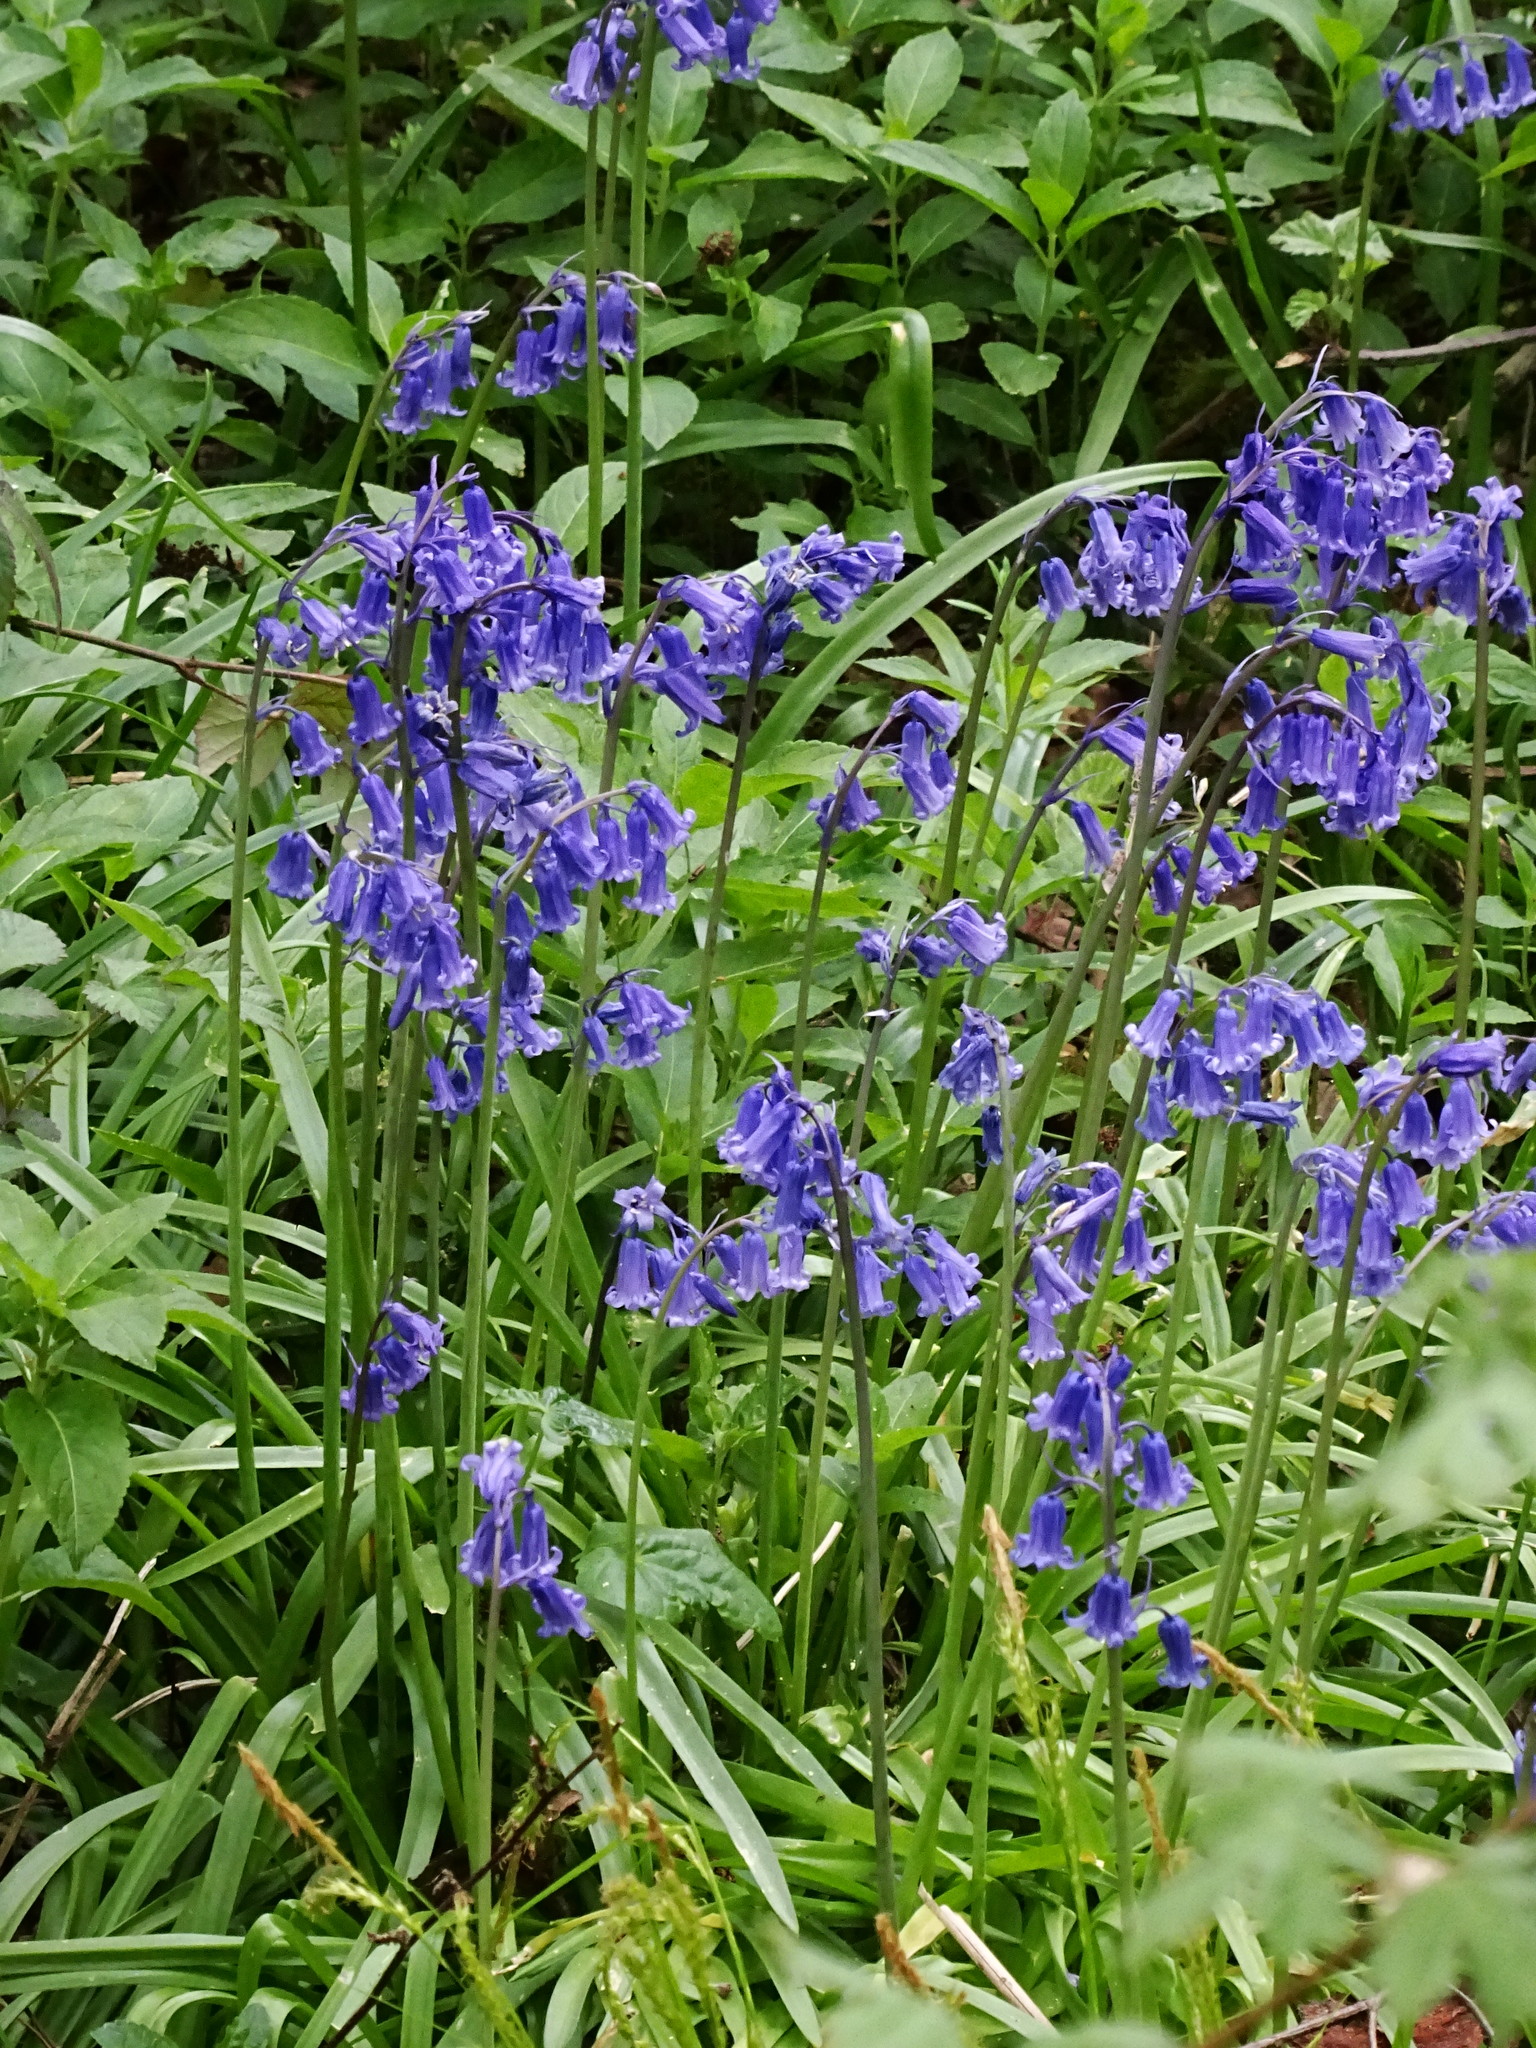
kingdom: Plantae
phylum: Tracheophyta
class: Liliopsida
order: Asparagales
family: Asparagaceae
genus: Hyacinthoides
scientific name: Hyacinthoides non-scripta
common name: Bluebell
